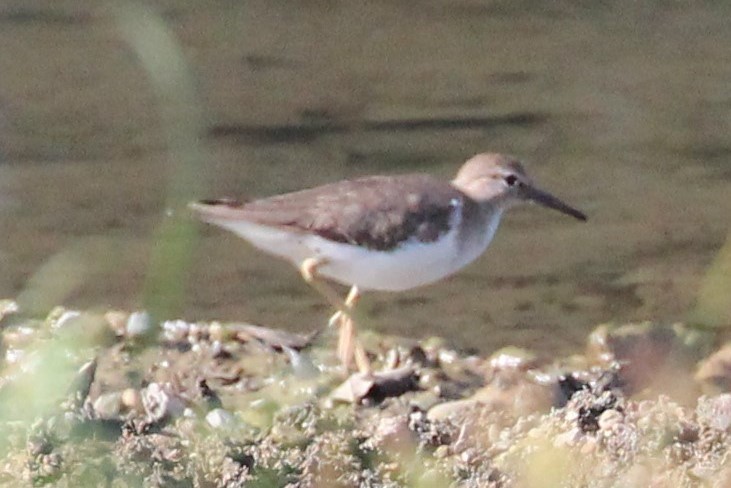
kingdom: Animalia
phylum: Chordata
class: Aves
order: Charadriiformes
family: Scolopacidae
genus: Actitis
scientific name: Actitis macularius
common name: Spotted sandpiper
